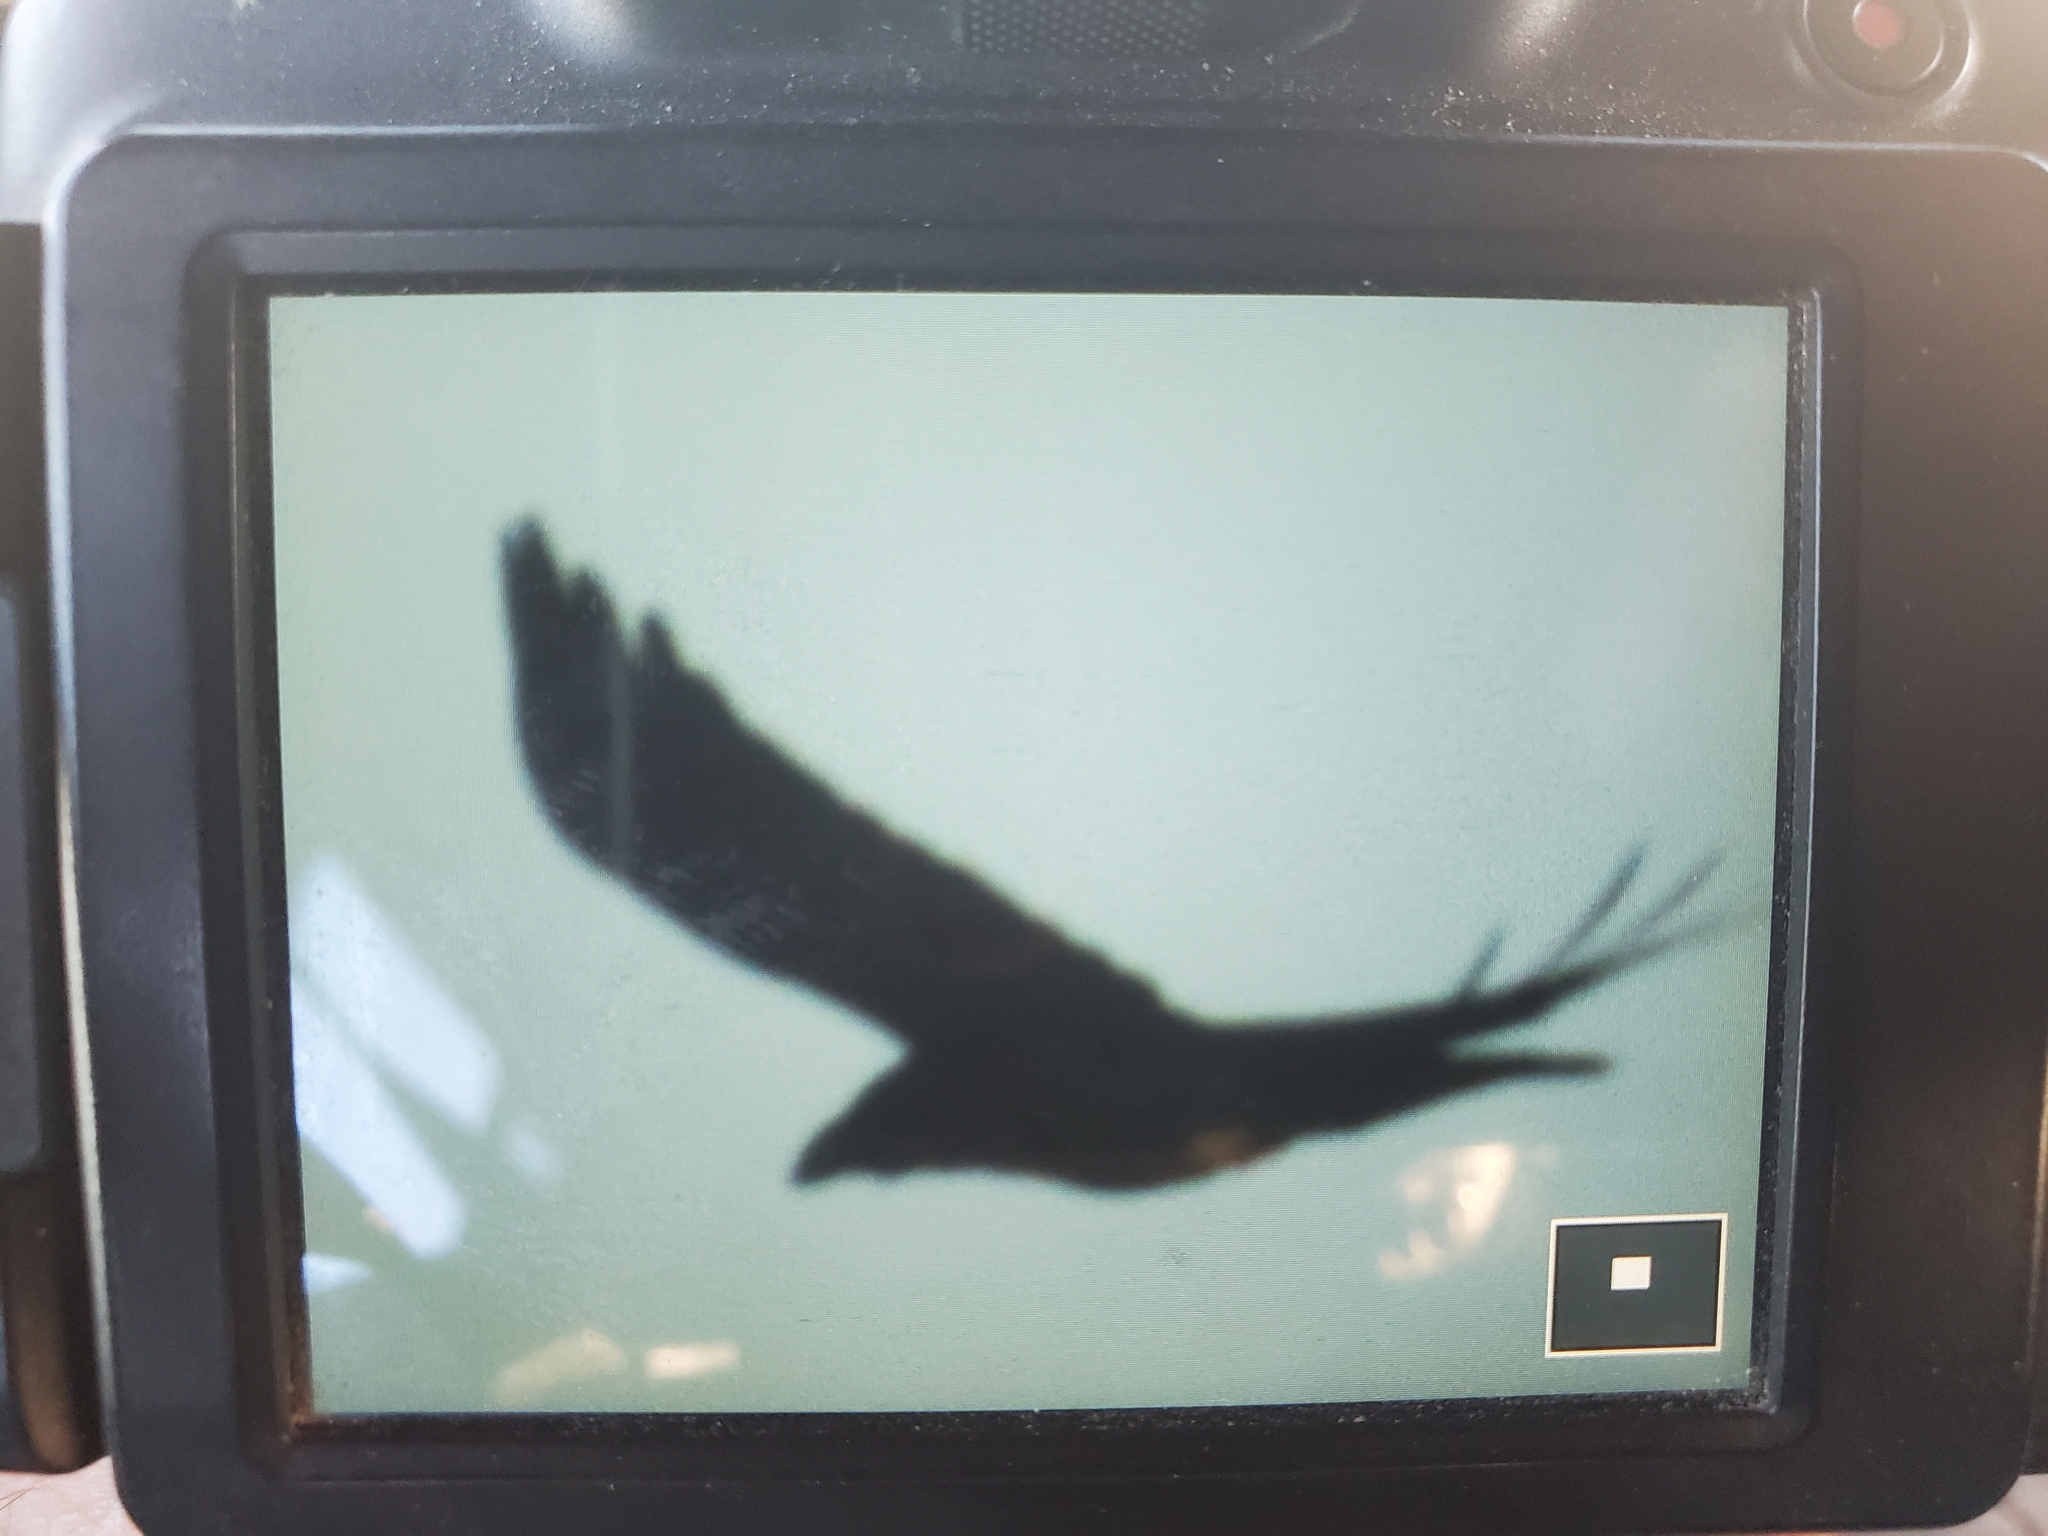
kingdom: Animalia
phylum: Chordata
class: Aves
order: Passeriformes
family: Corvidae
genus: Corvus
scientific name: Corvus corax
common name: Common raven
